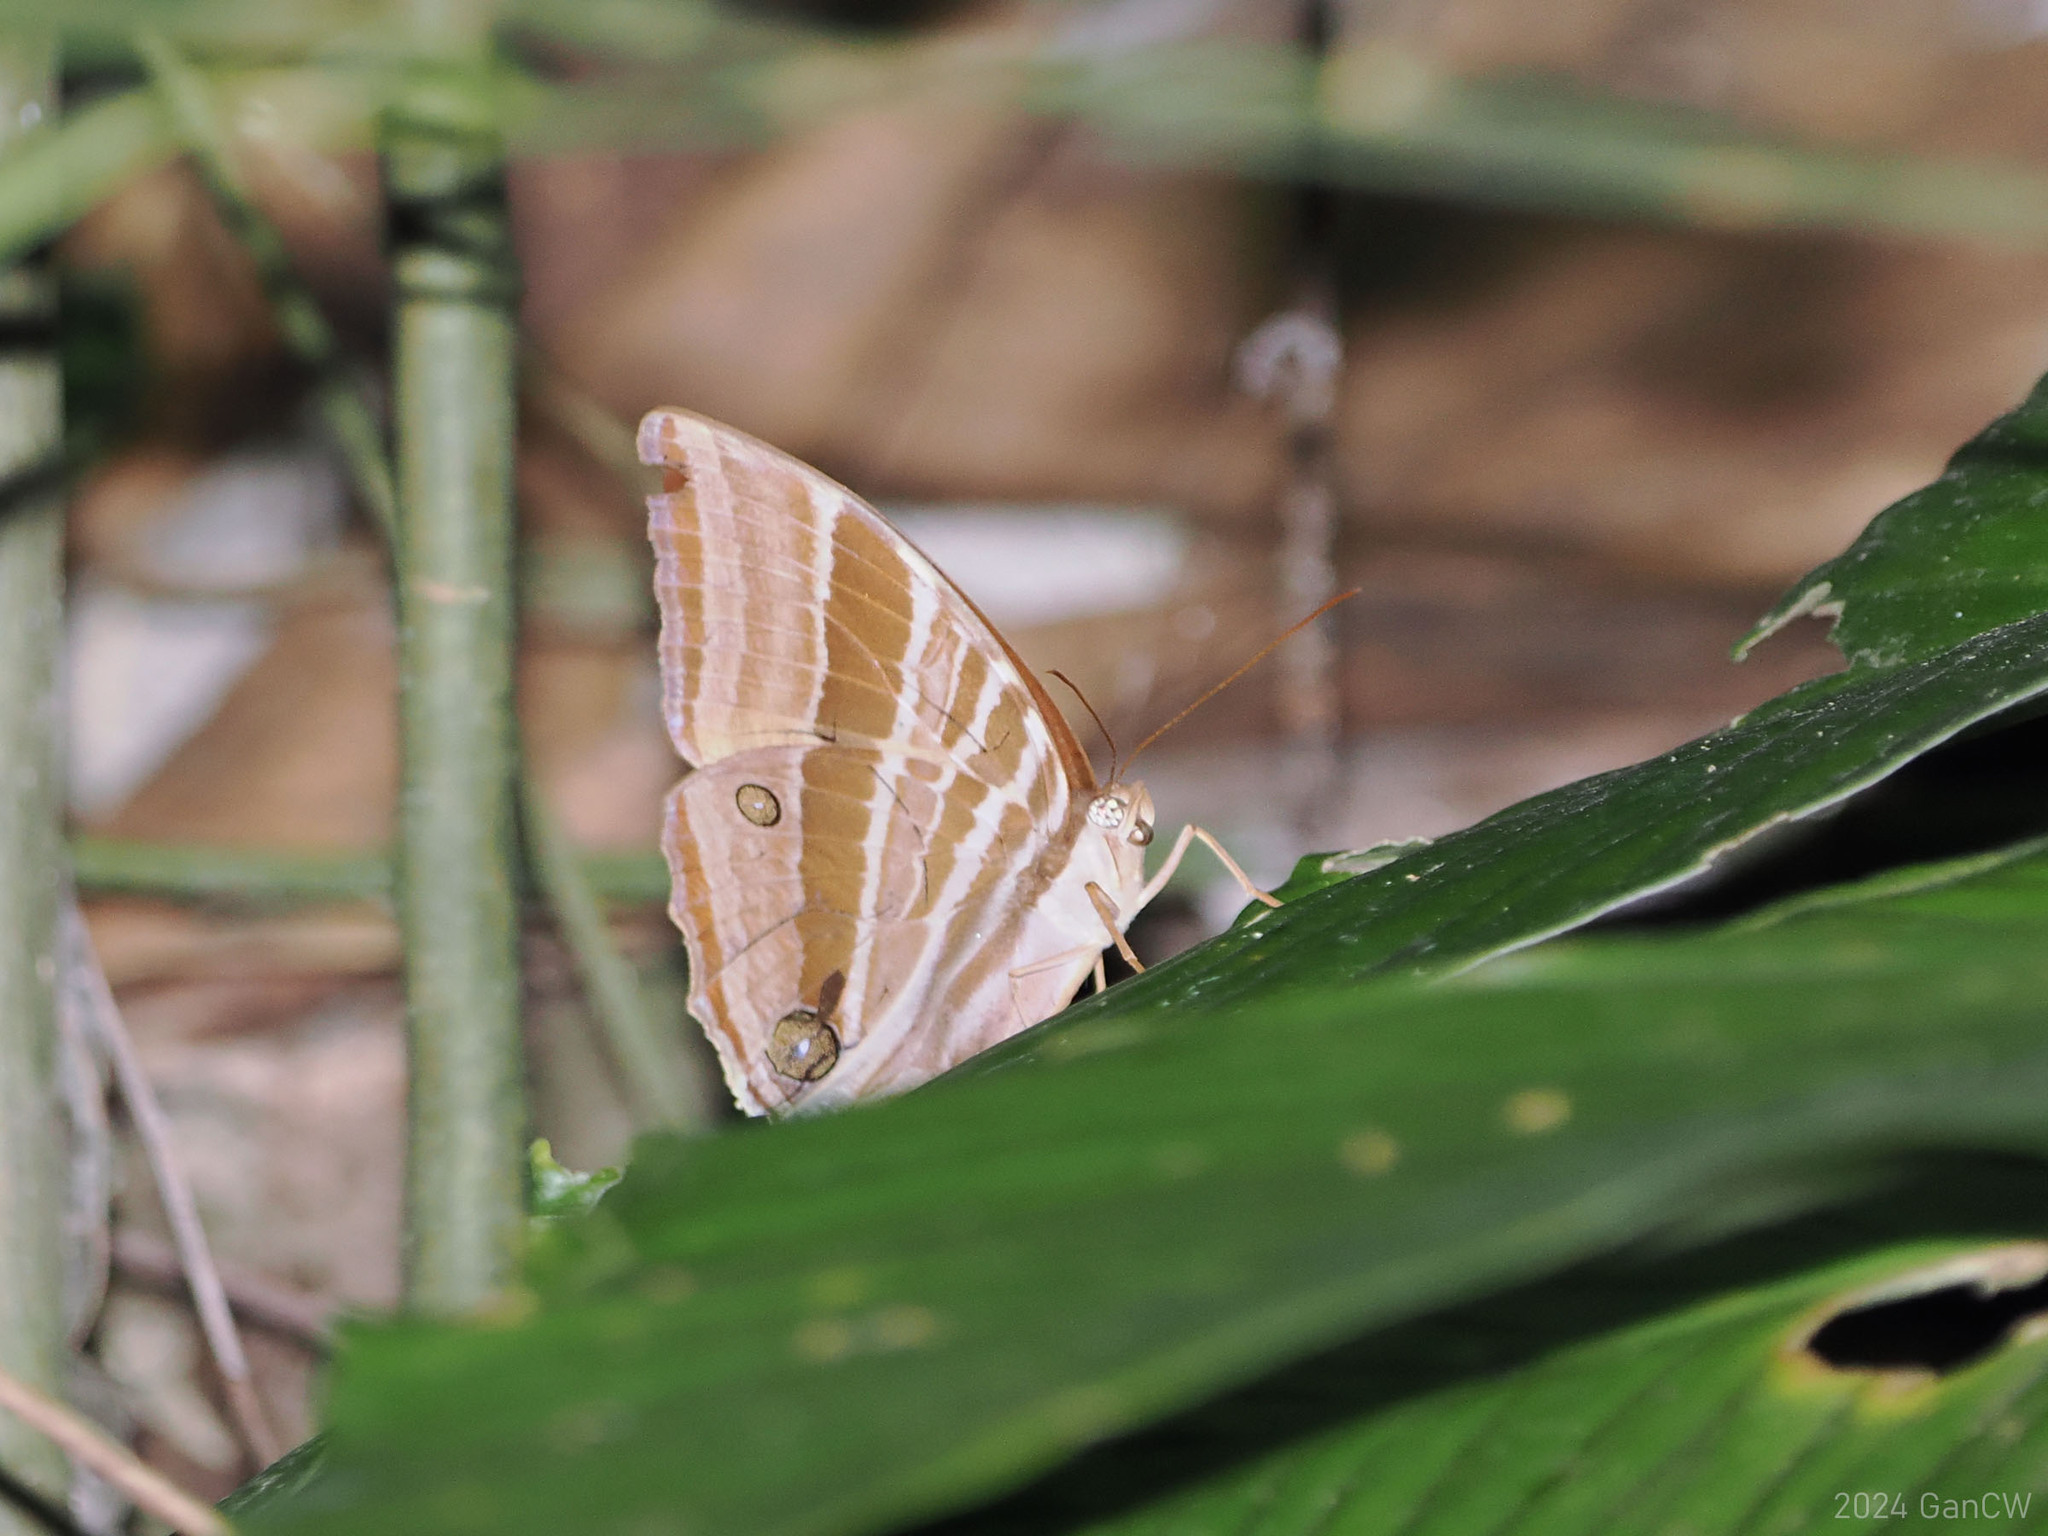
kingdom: Animalia
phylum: Arthropoda
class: Insecta
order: Lepidoptera
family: Nymphalidae
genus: Amathusia
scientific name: Amathusia phidippus
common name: Palm king
